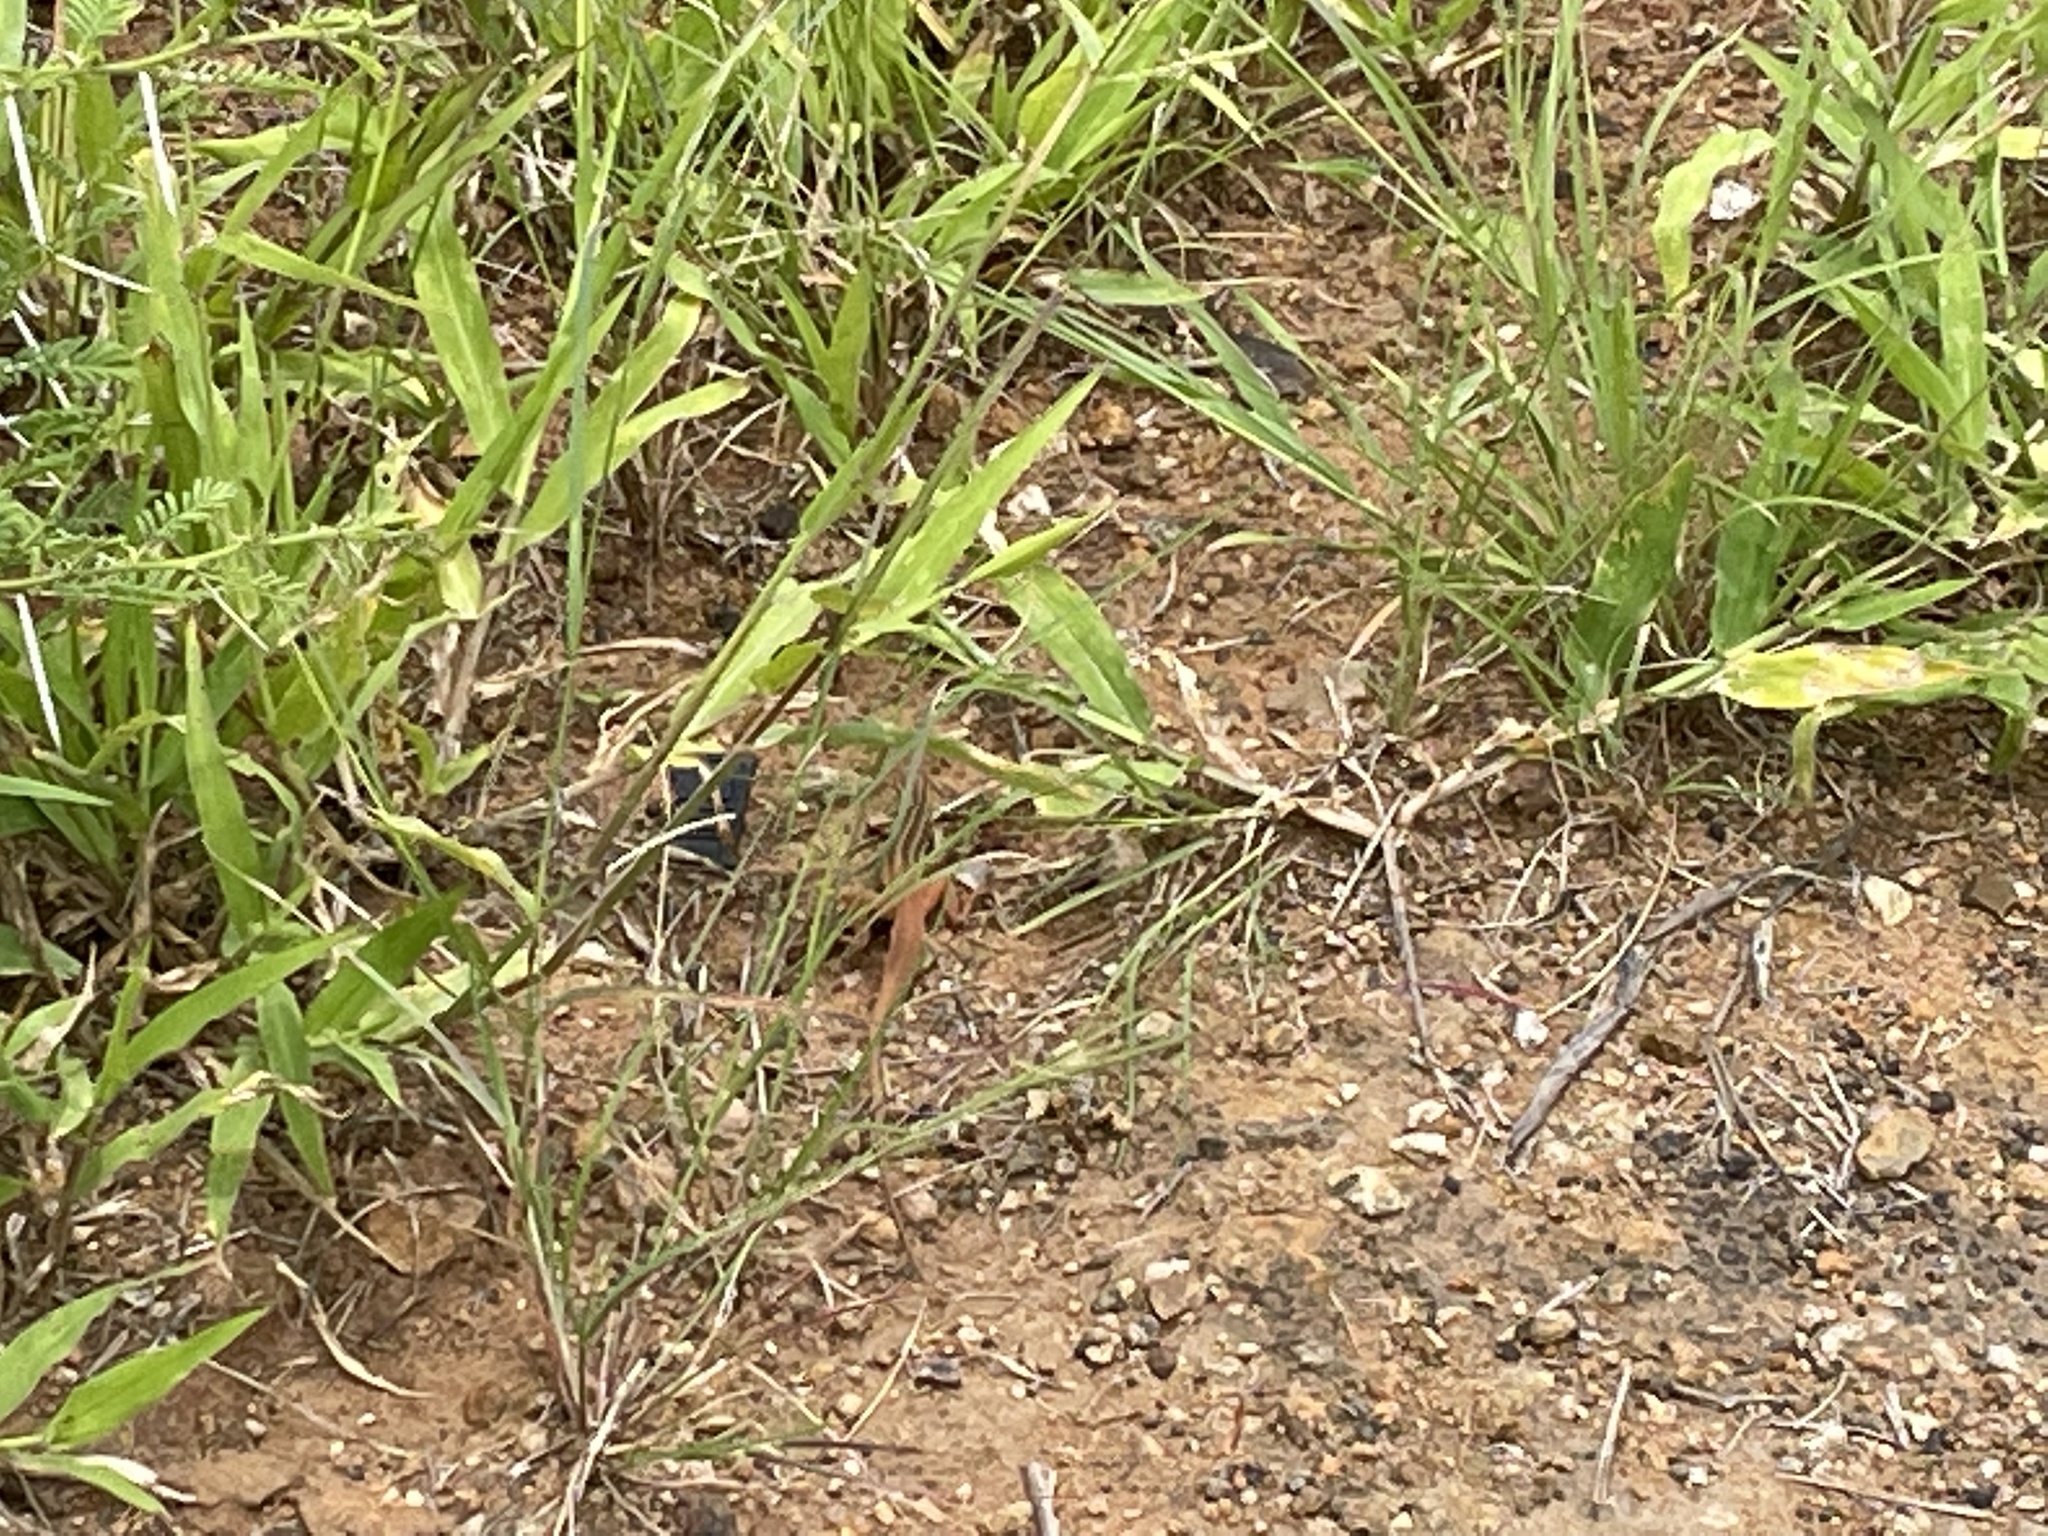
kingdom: Animalia
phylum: Chordata
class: Squamata
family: Lacertidae
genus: Heliobolus
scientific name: Heliobolus lugubris
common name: Bushveld lizard
